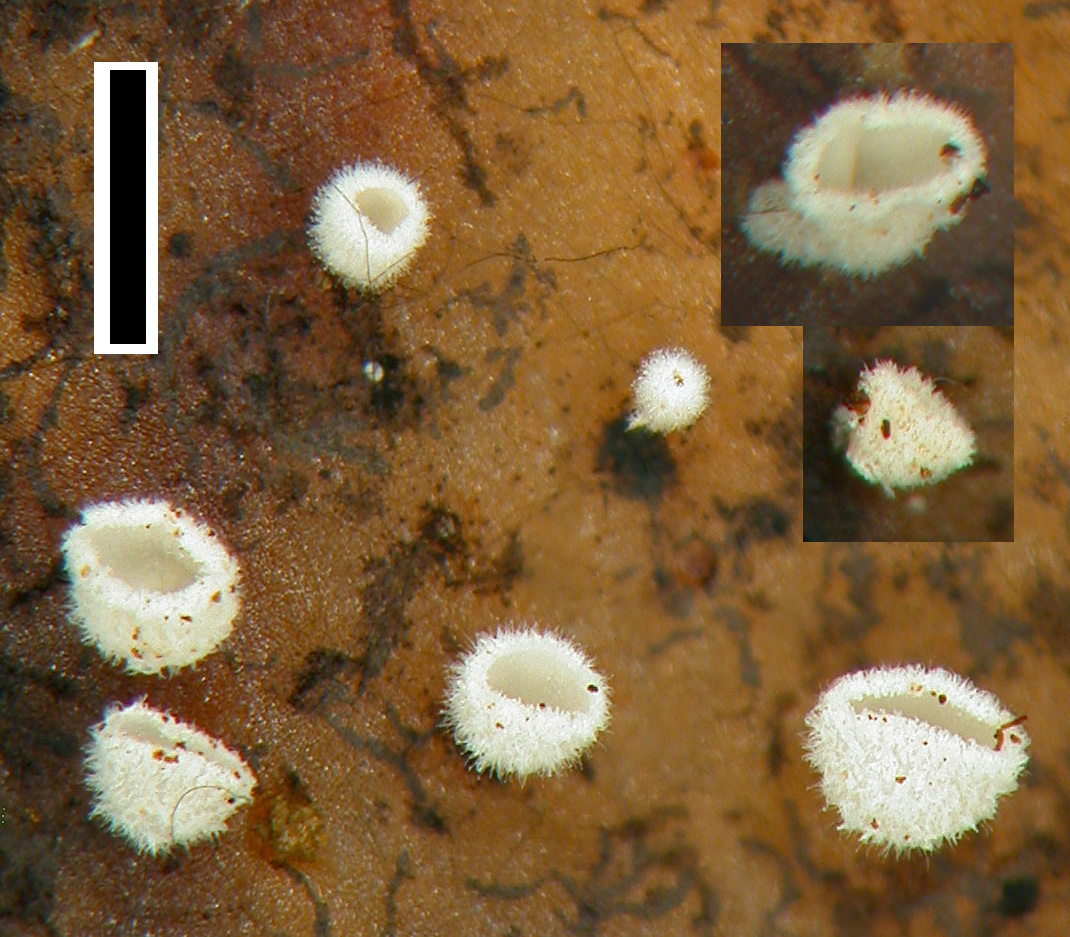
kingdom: Fungi
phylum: Basidiomycota
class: Agaricomycetes
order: Agaricales
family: Niaceae
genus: Flagelloscypha
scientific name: Flagelloscypha pseudopanax
